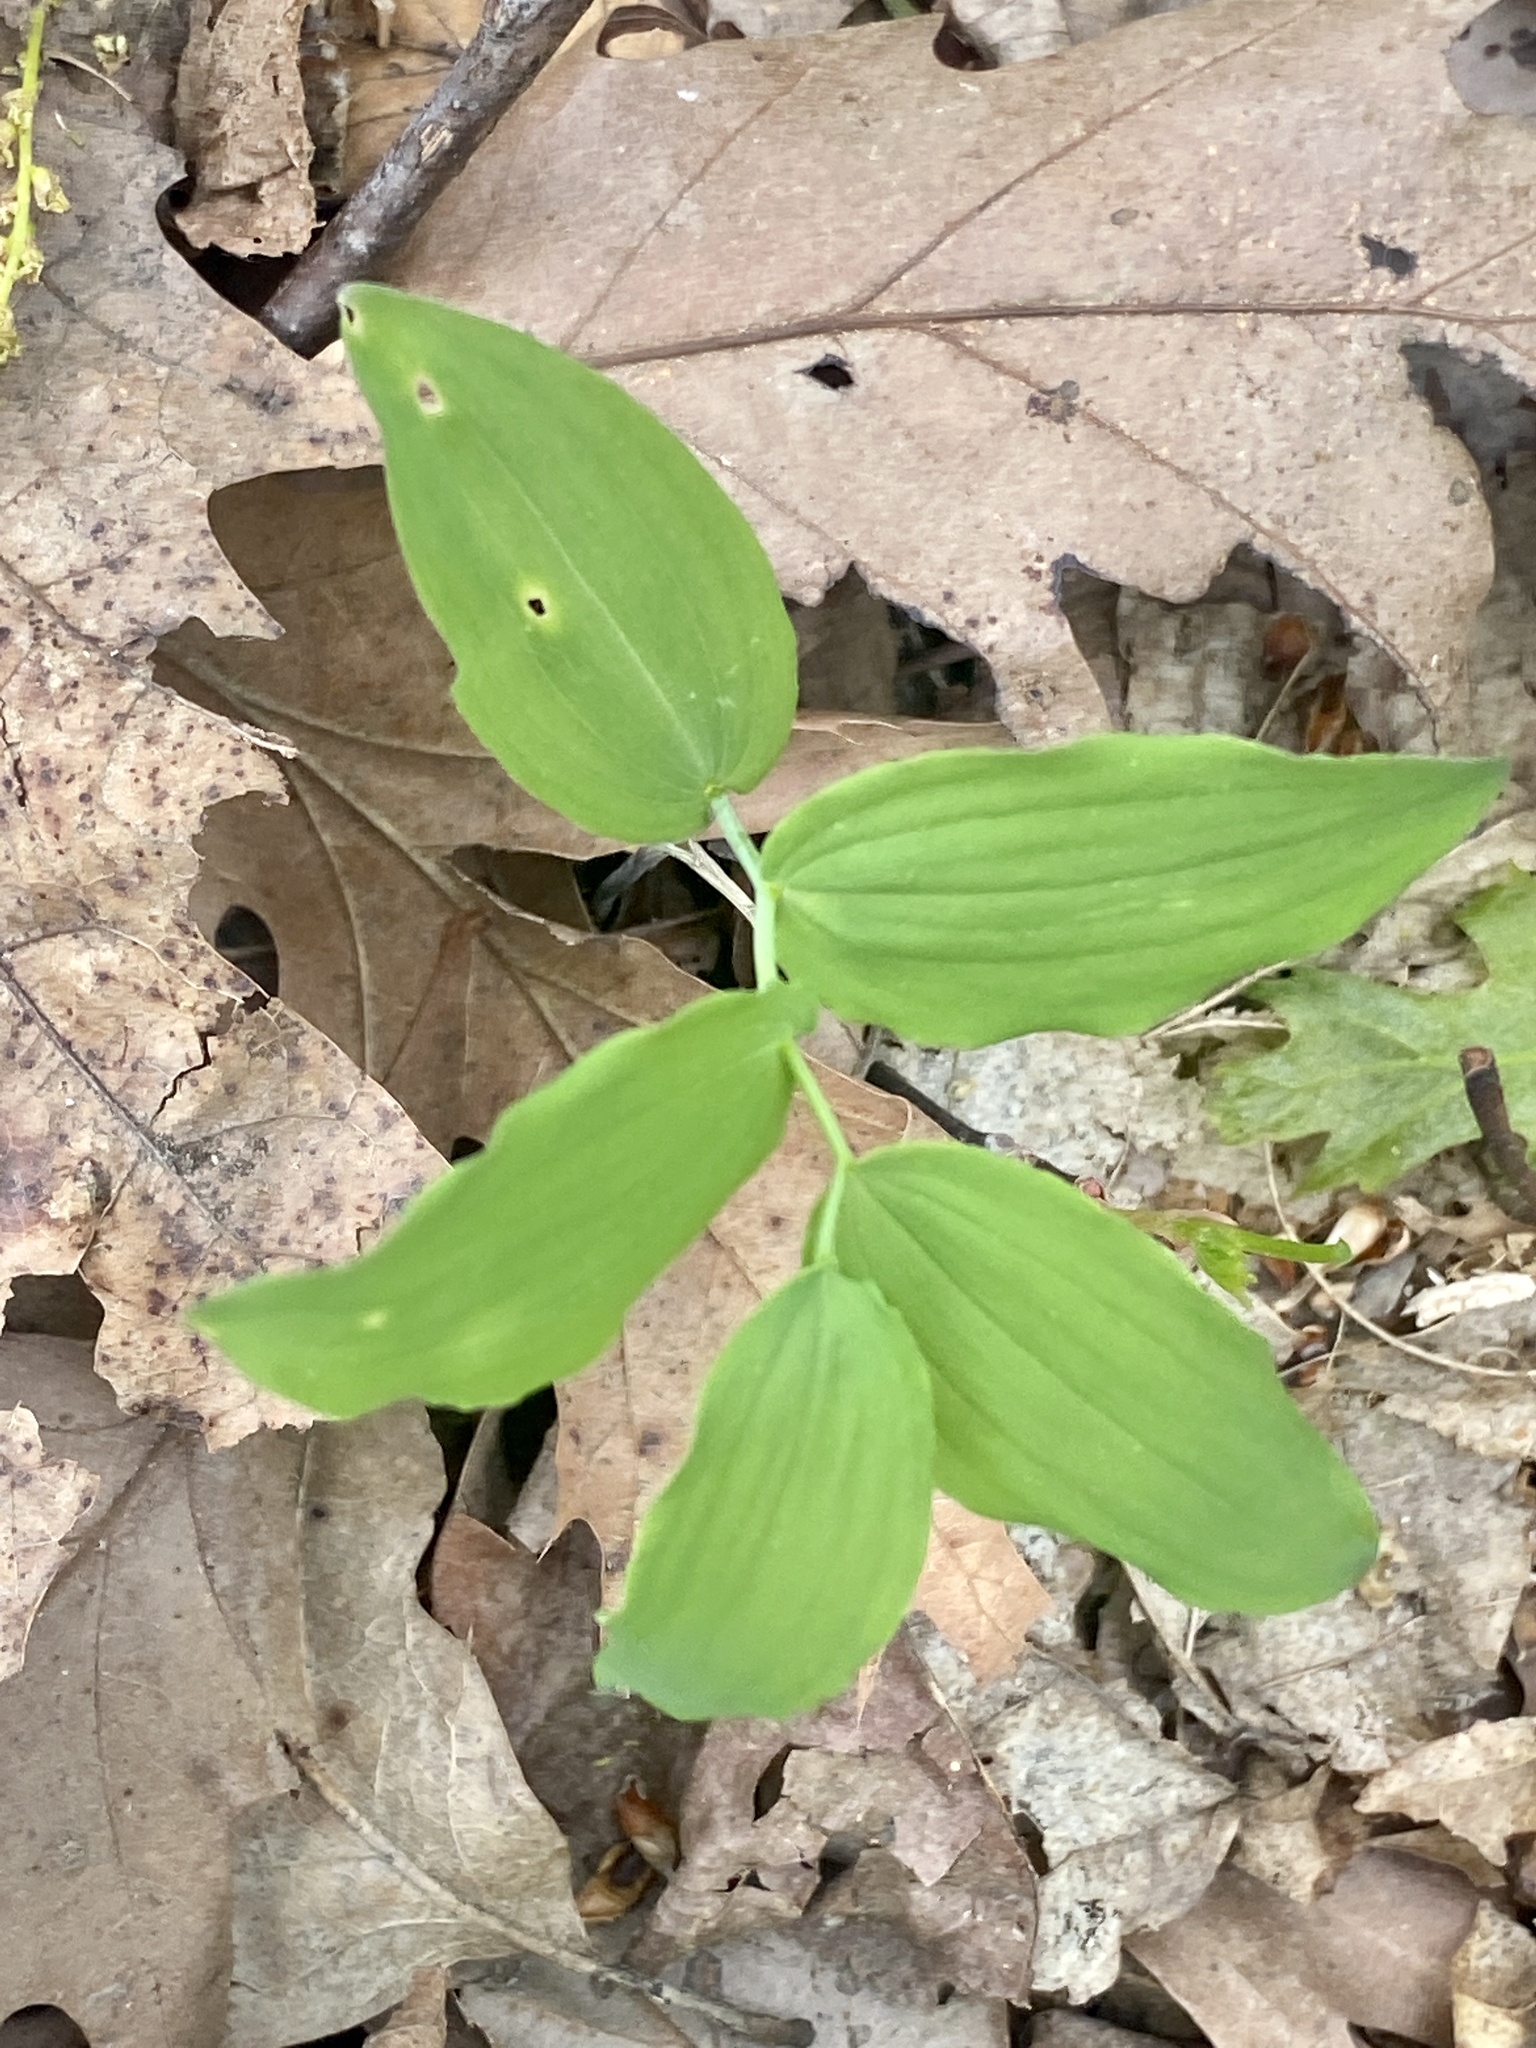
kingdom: Plantae
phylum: Tracheophyta
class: Liliopsida
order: Asparagales
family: Asparagaceae
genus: Polygonatum
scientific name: Polygonatum pubescens
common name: Downy solomon's seal
